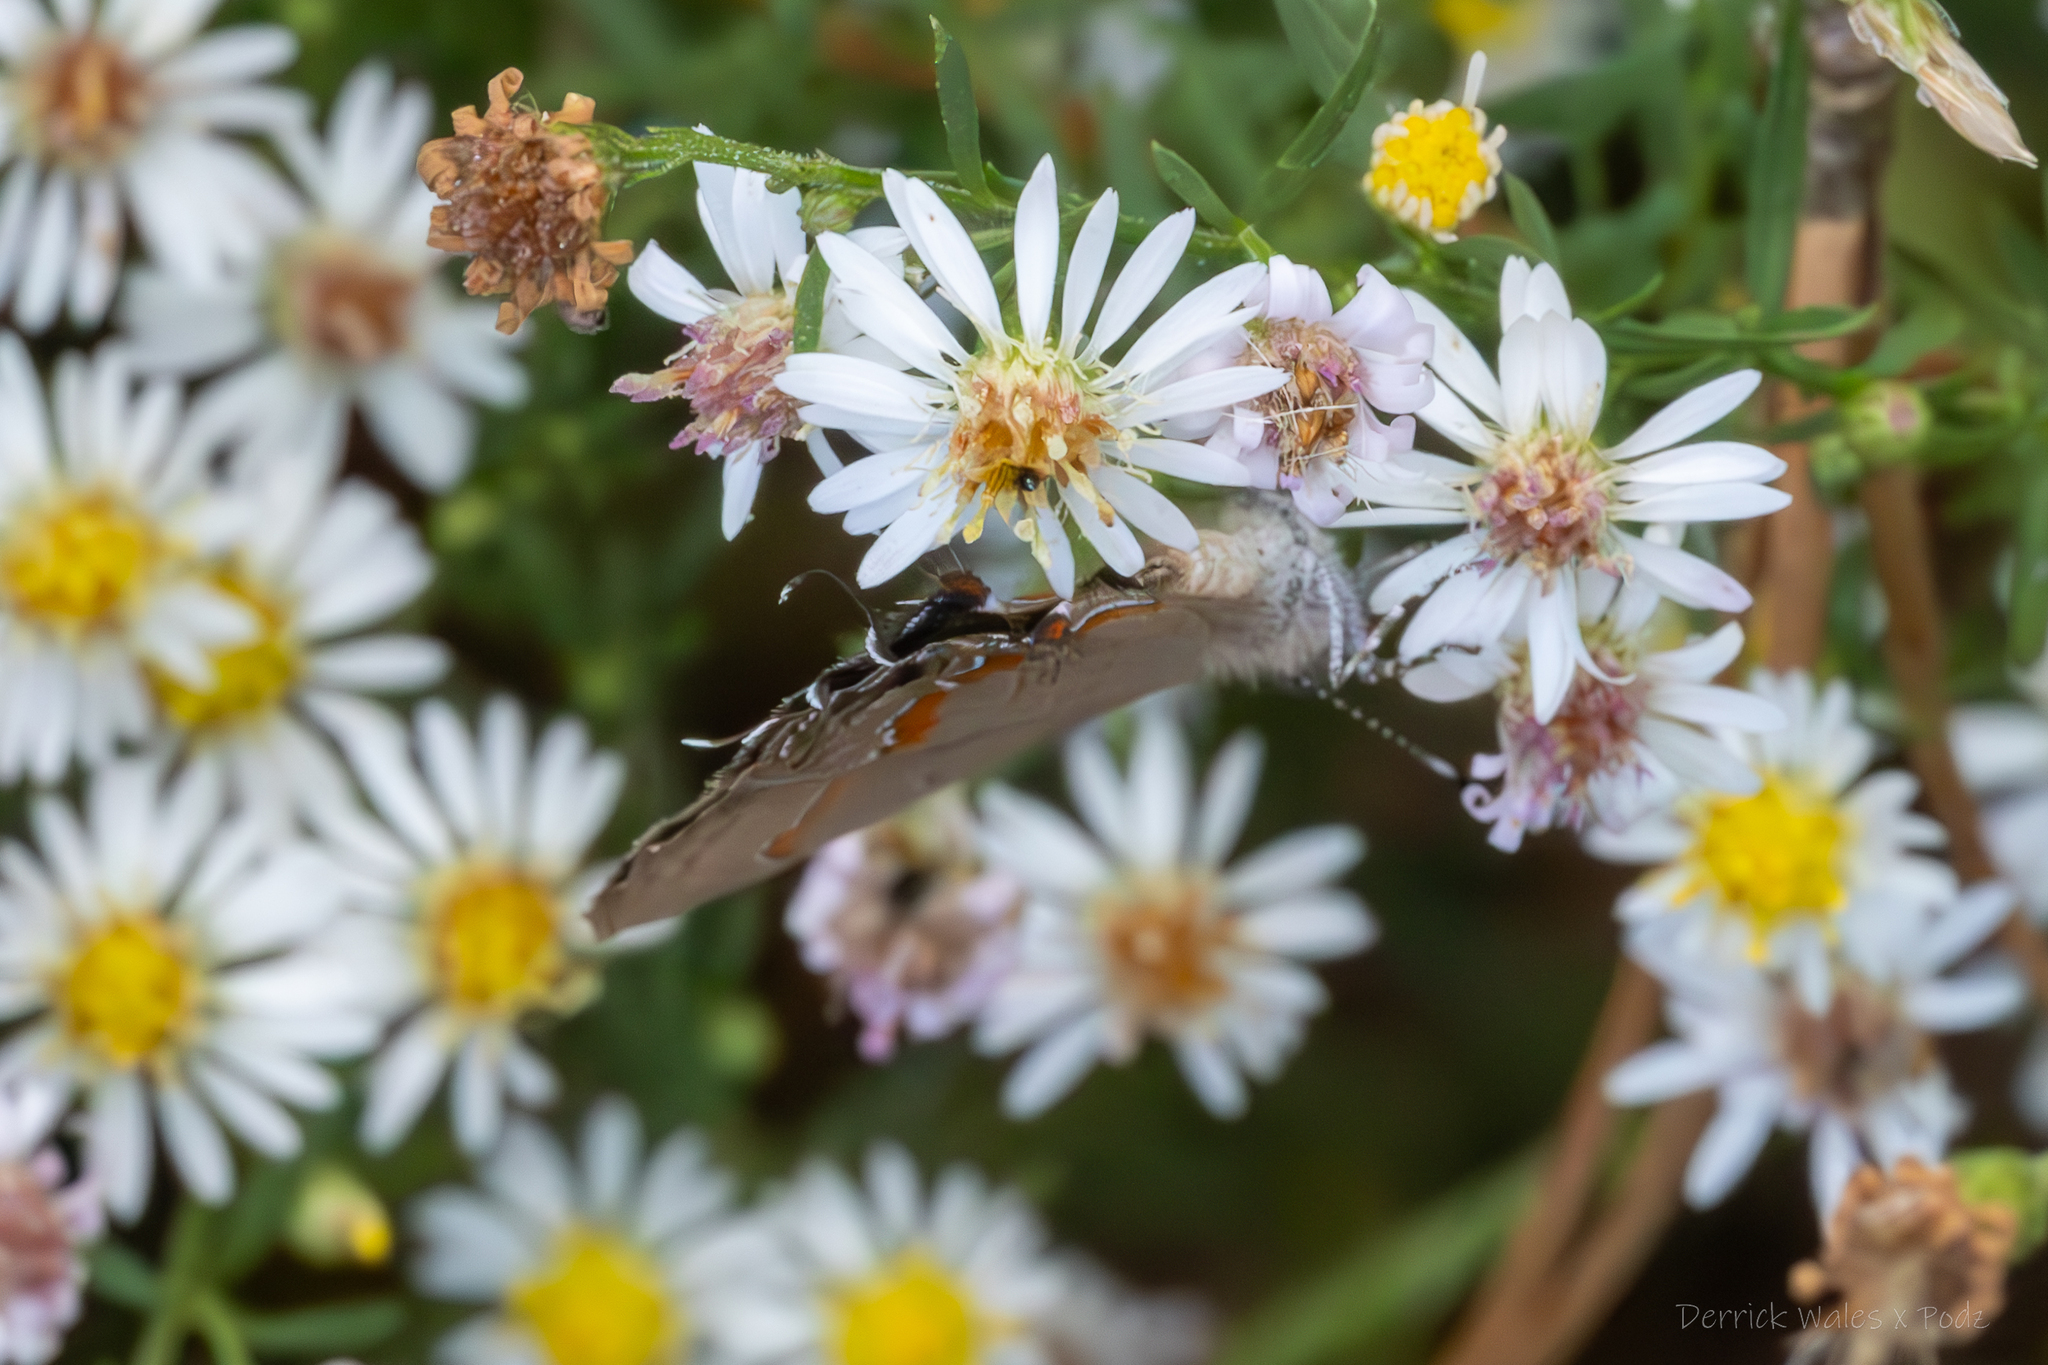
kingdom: Animalia
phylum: Arthropoda
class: Insecta
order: Lepidoptera
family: Lycaenidae
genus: Calycopis
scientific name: Calycopis cecrops
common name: Red-banded hairstreak
